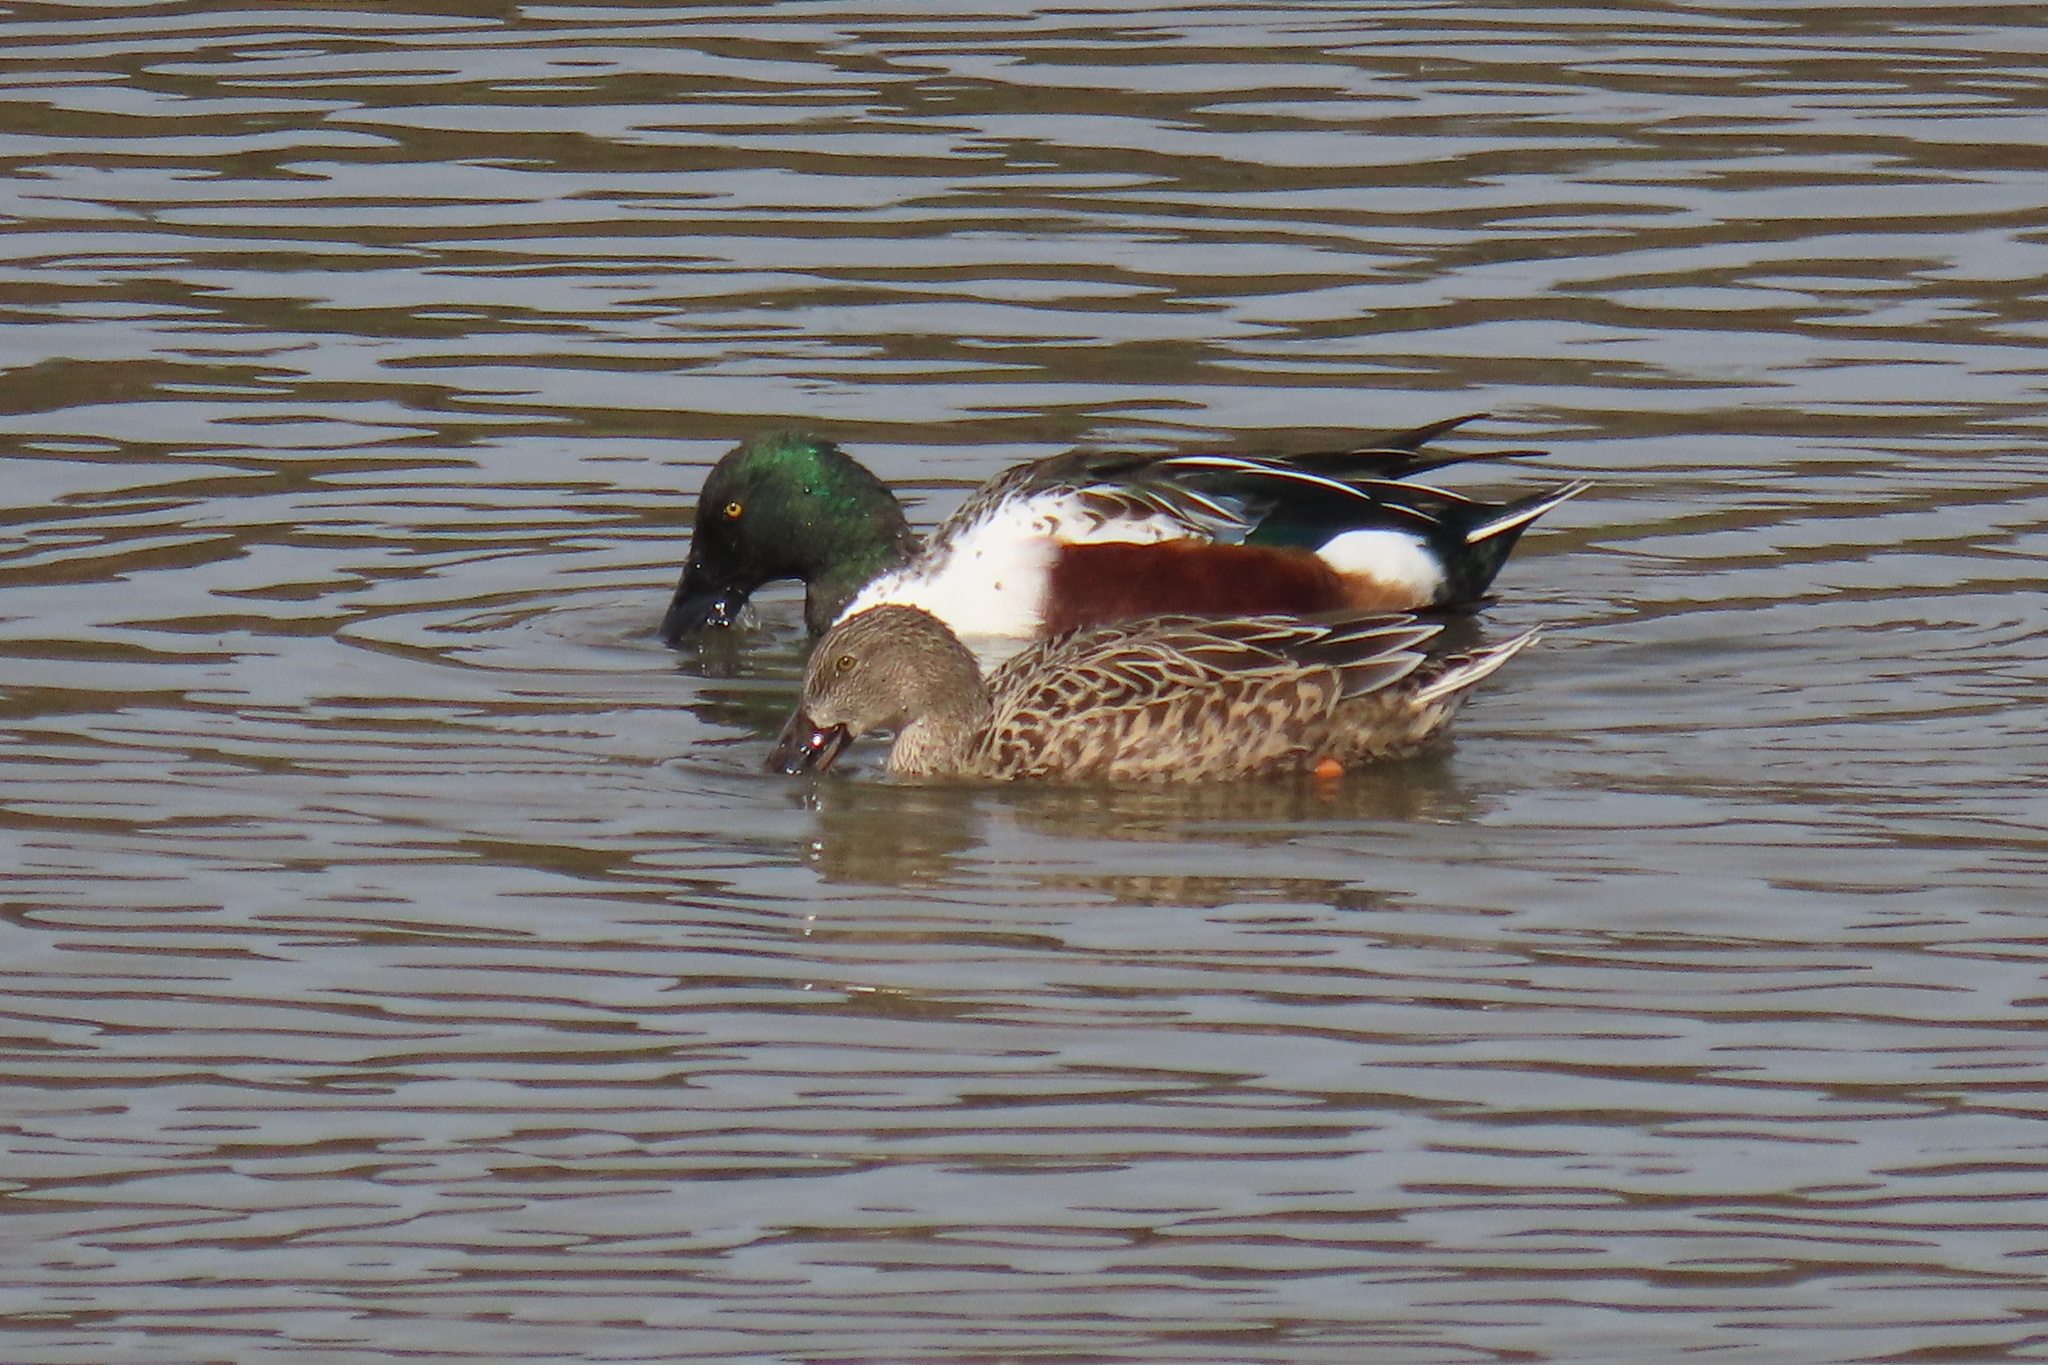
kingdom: Animalia
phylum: Chordata
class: Aves
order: Anseriformes
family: Anatidae
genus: Spatula
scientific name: Spatula clypeata
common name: Northern shoveler
